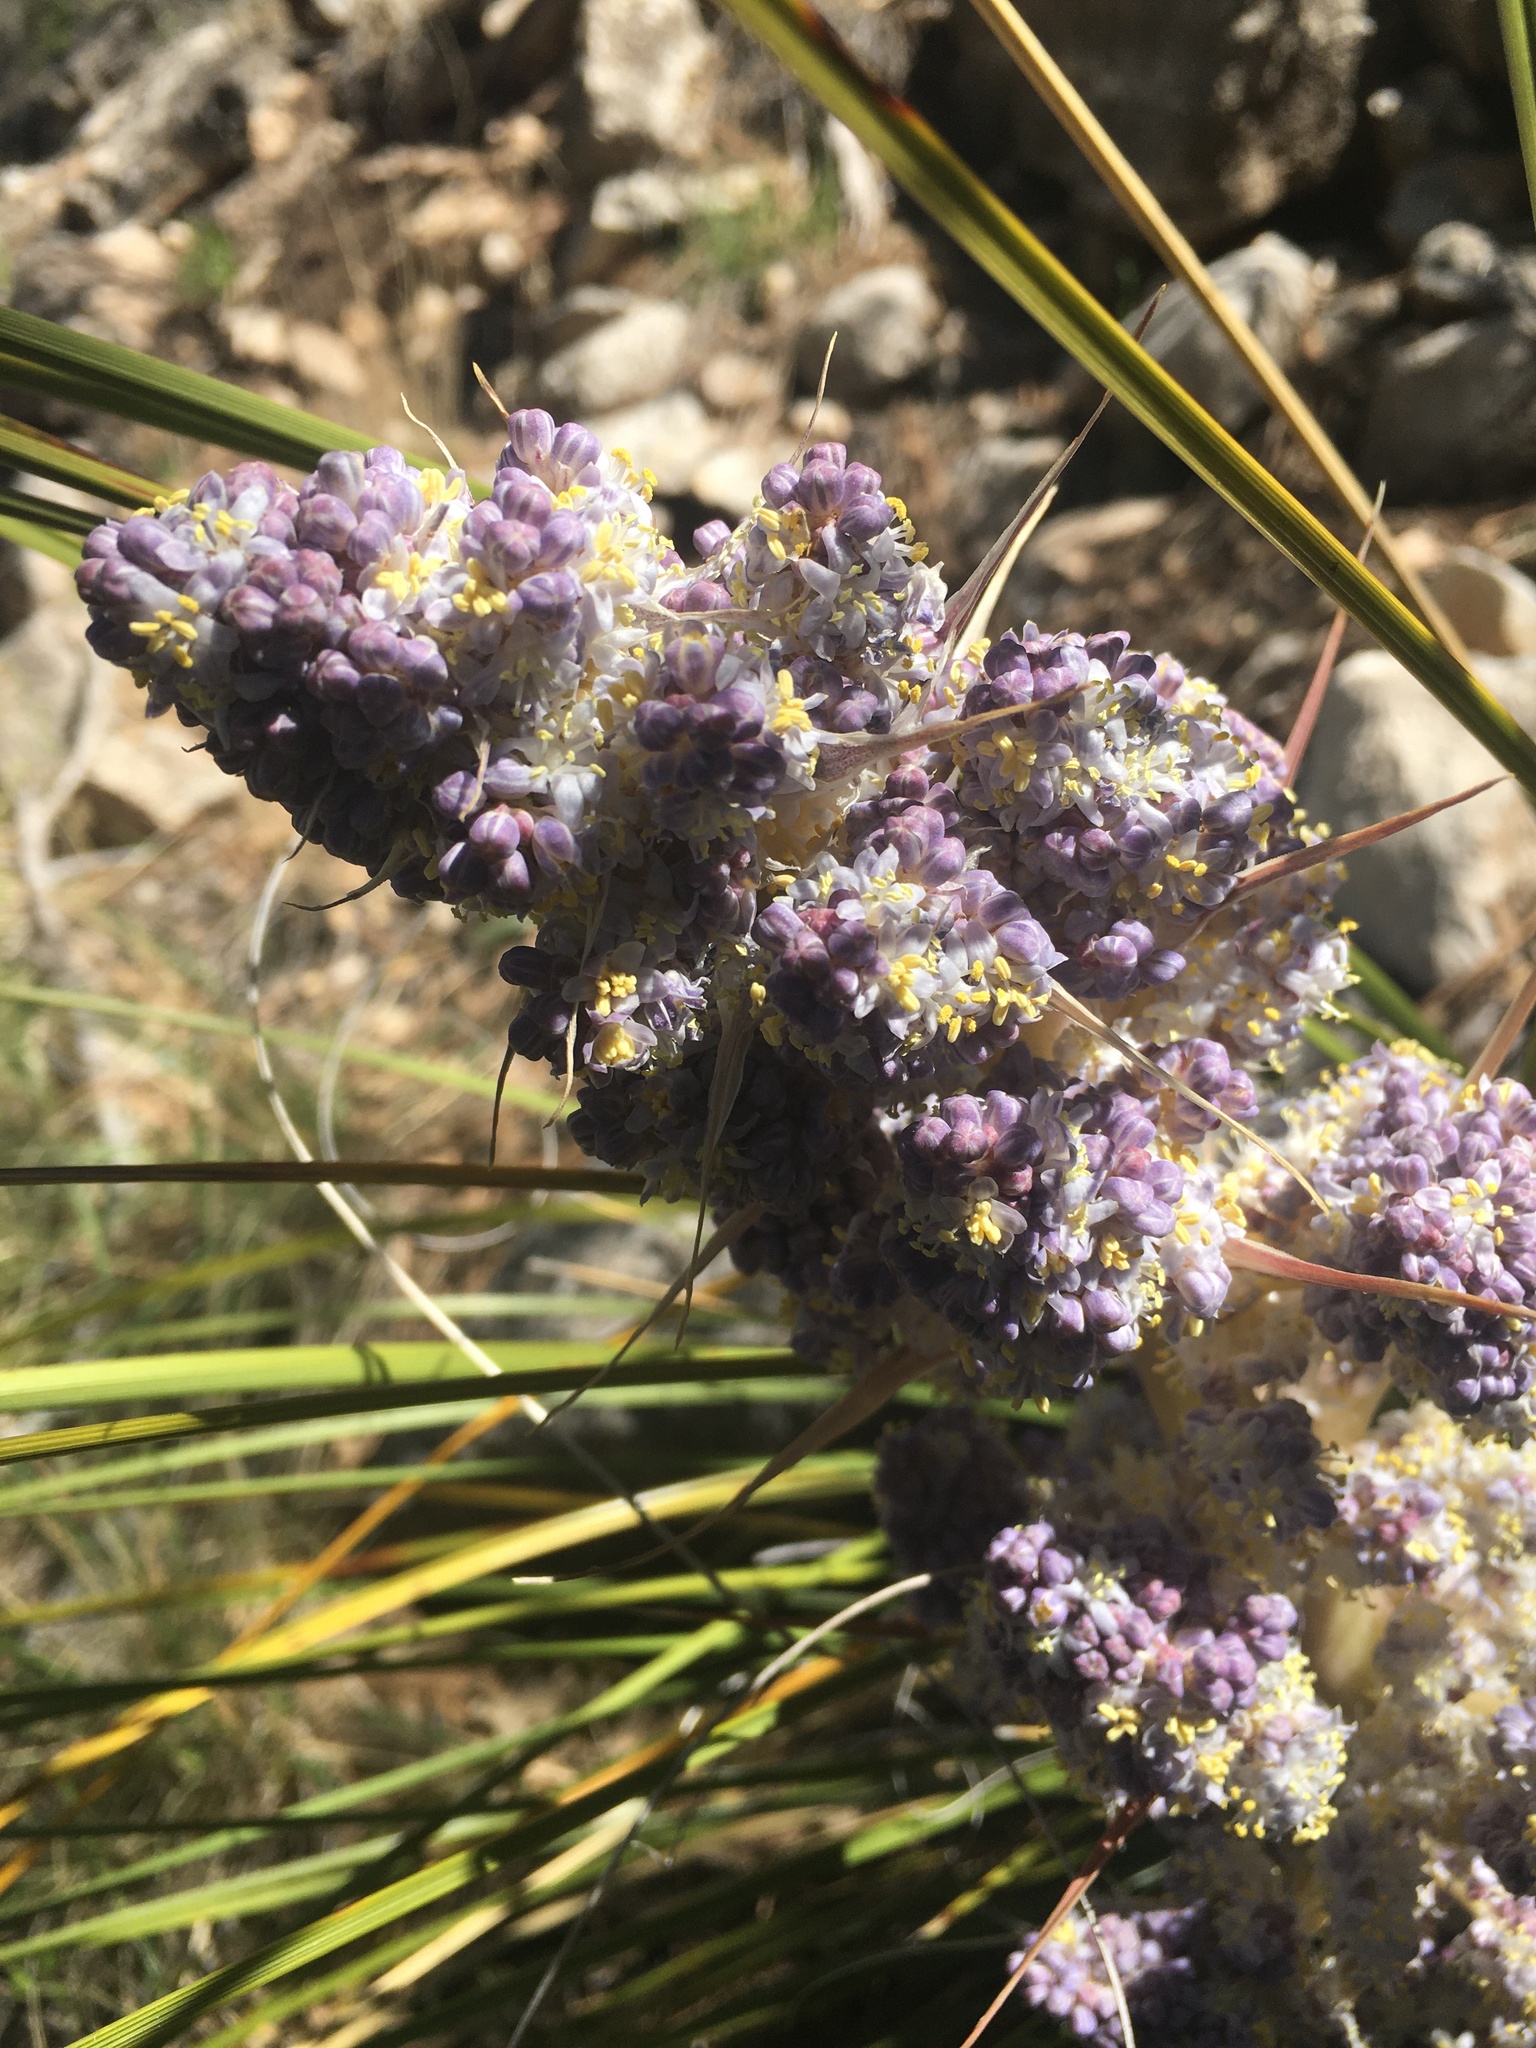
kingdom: Plantae
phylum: Tracheophyta
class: Liliopsida
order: Asparagales
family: Asparagaceae
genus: Nolina
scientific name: Nolina micrantha
